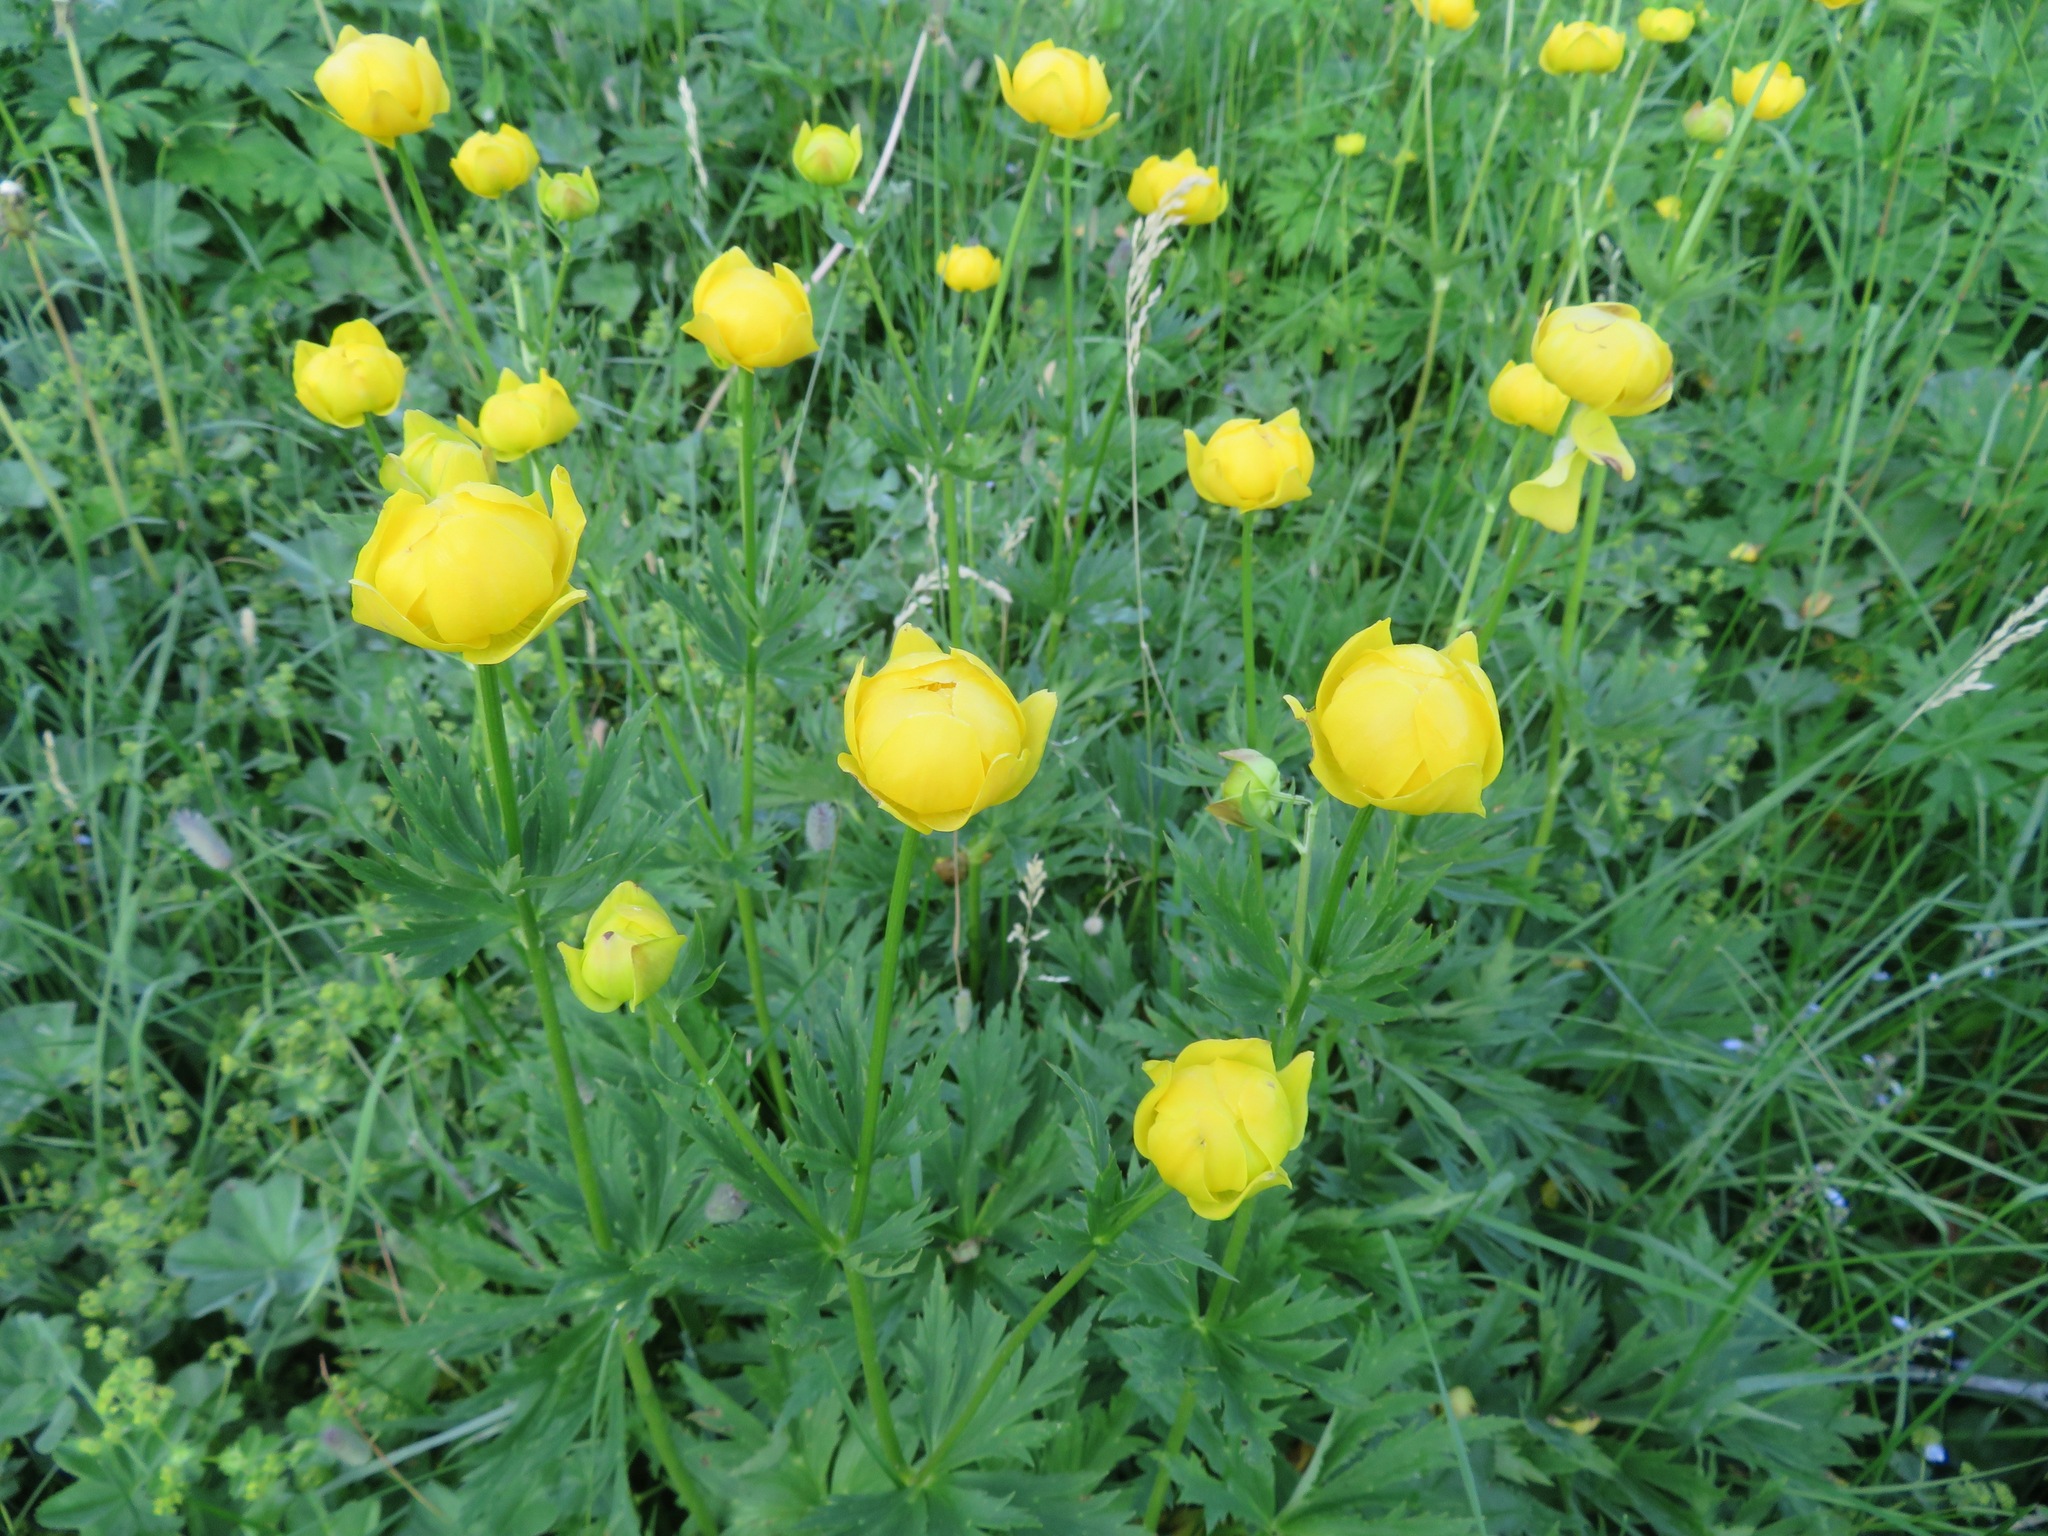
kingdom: Plantae
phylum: Tracheophyta
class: Magnoliopsida
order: Ranunculales
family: Ranunculaceae
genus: Trollius
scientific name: Trollius europaeus
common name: European globeflower
